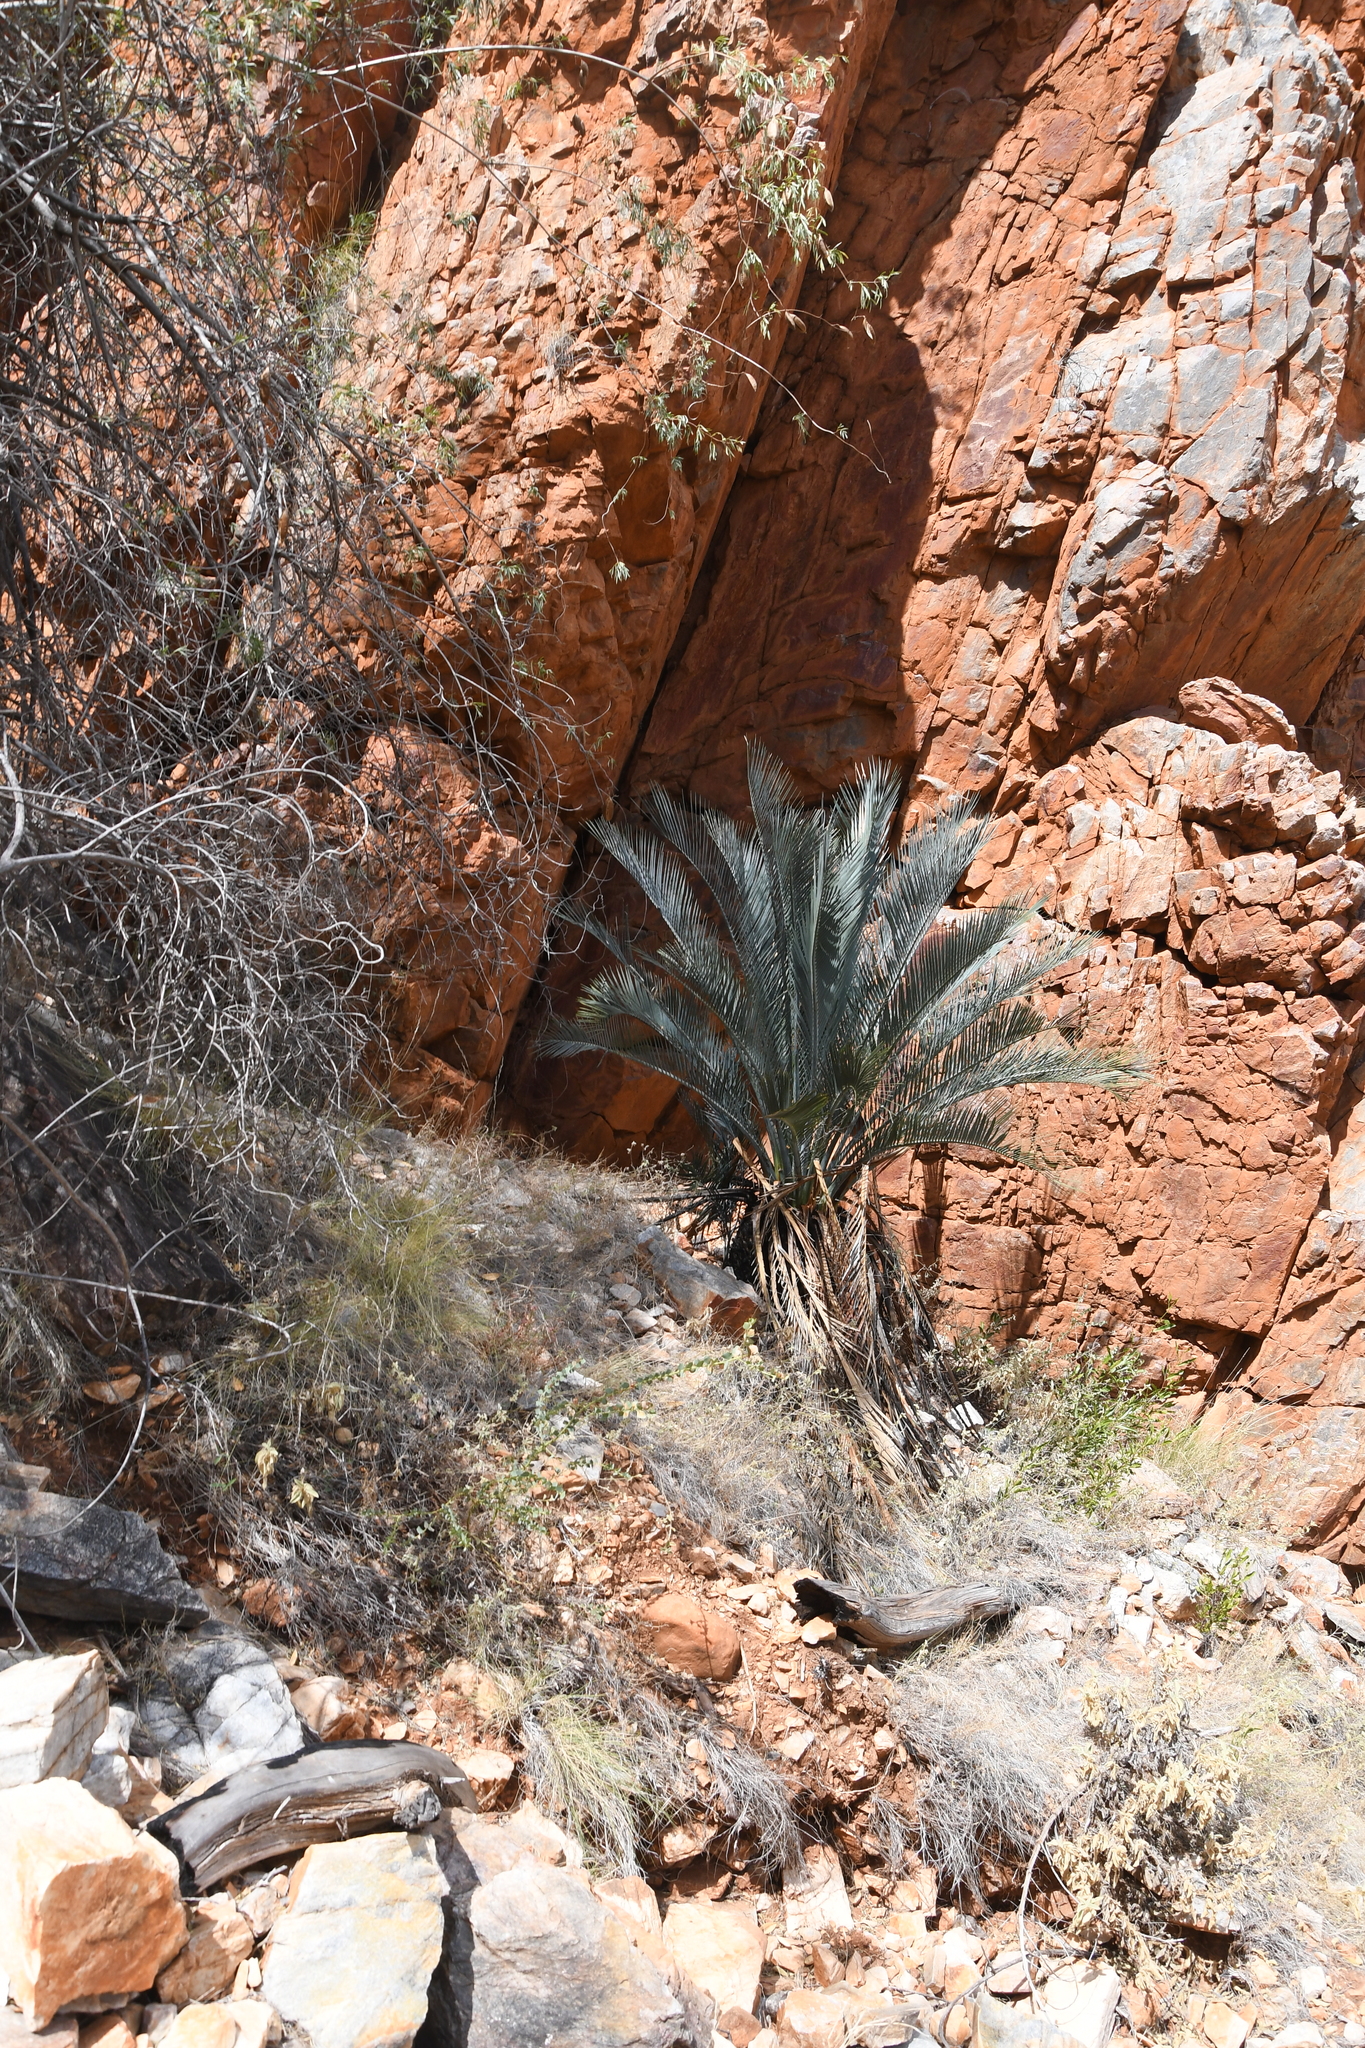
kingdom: Plantae
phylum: Tracheophyta
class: Cycadopsida
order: Cycadales
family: Zamiaceae
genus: Macrozamia
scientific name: Macrozamia macdonnellii
